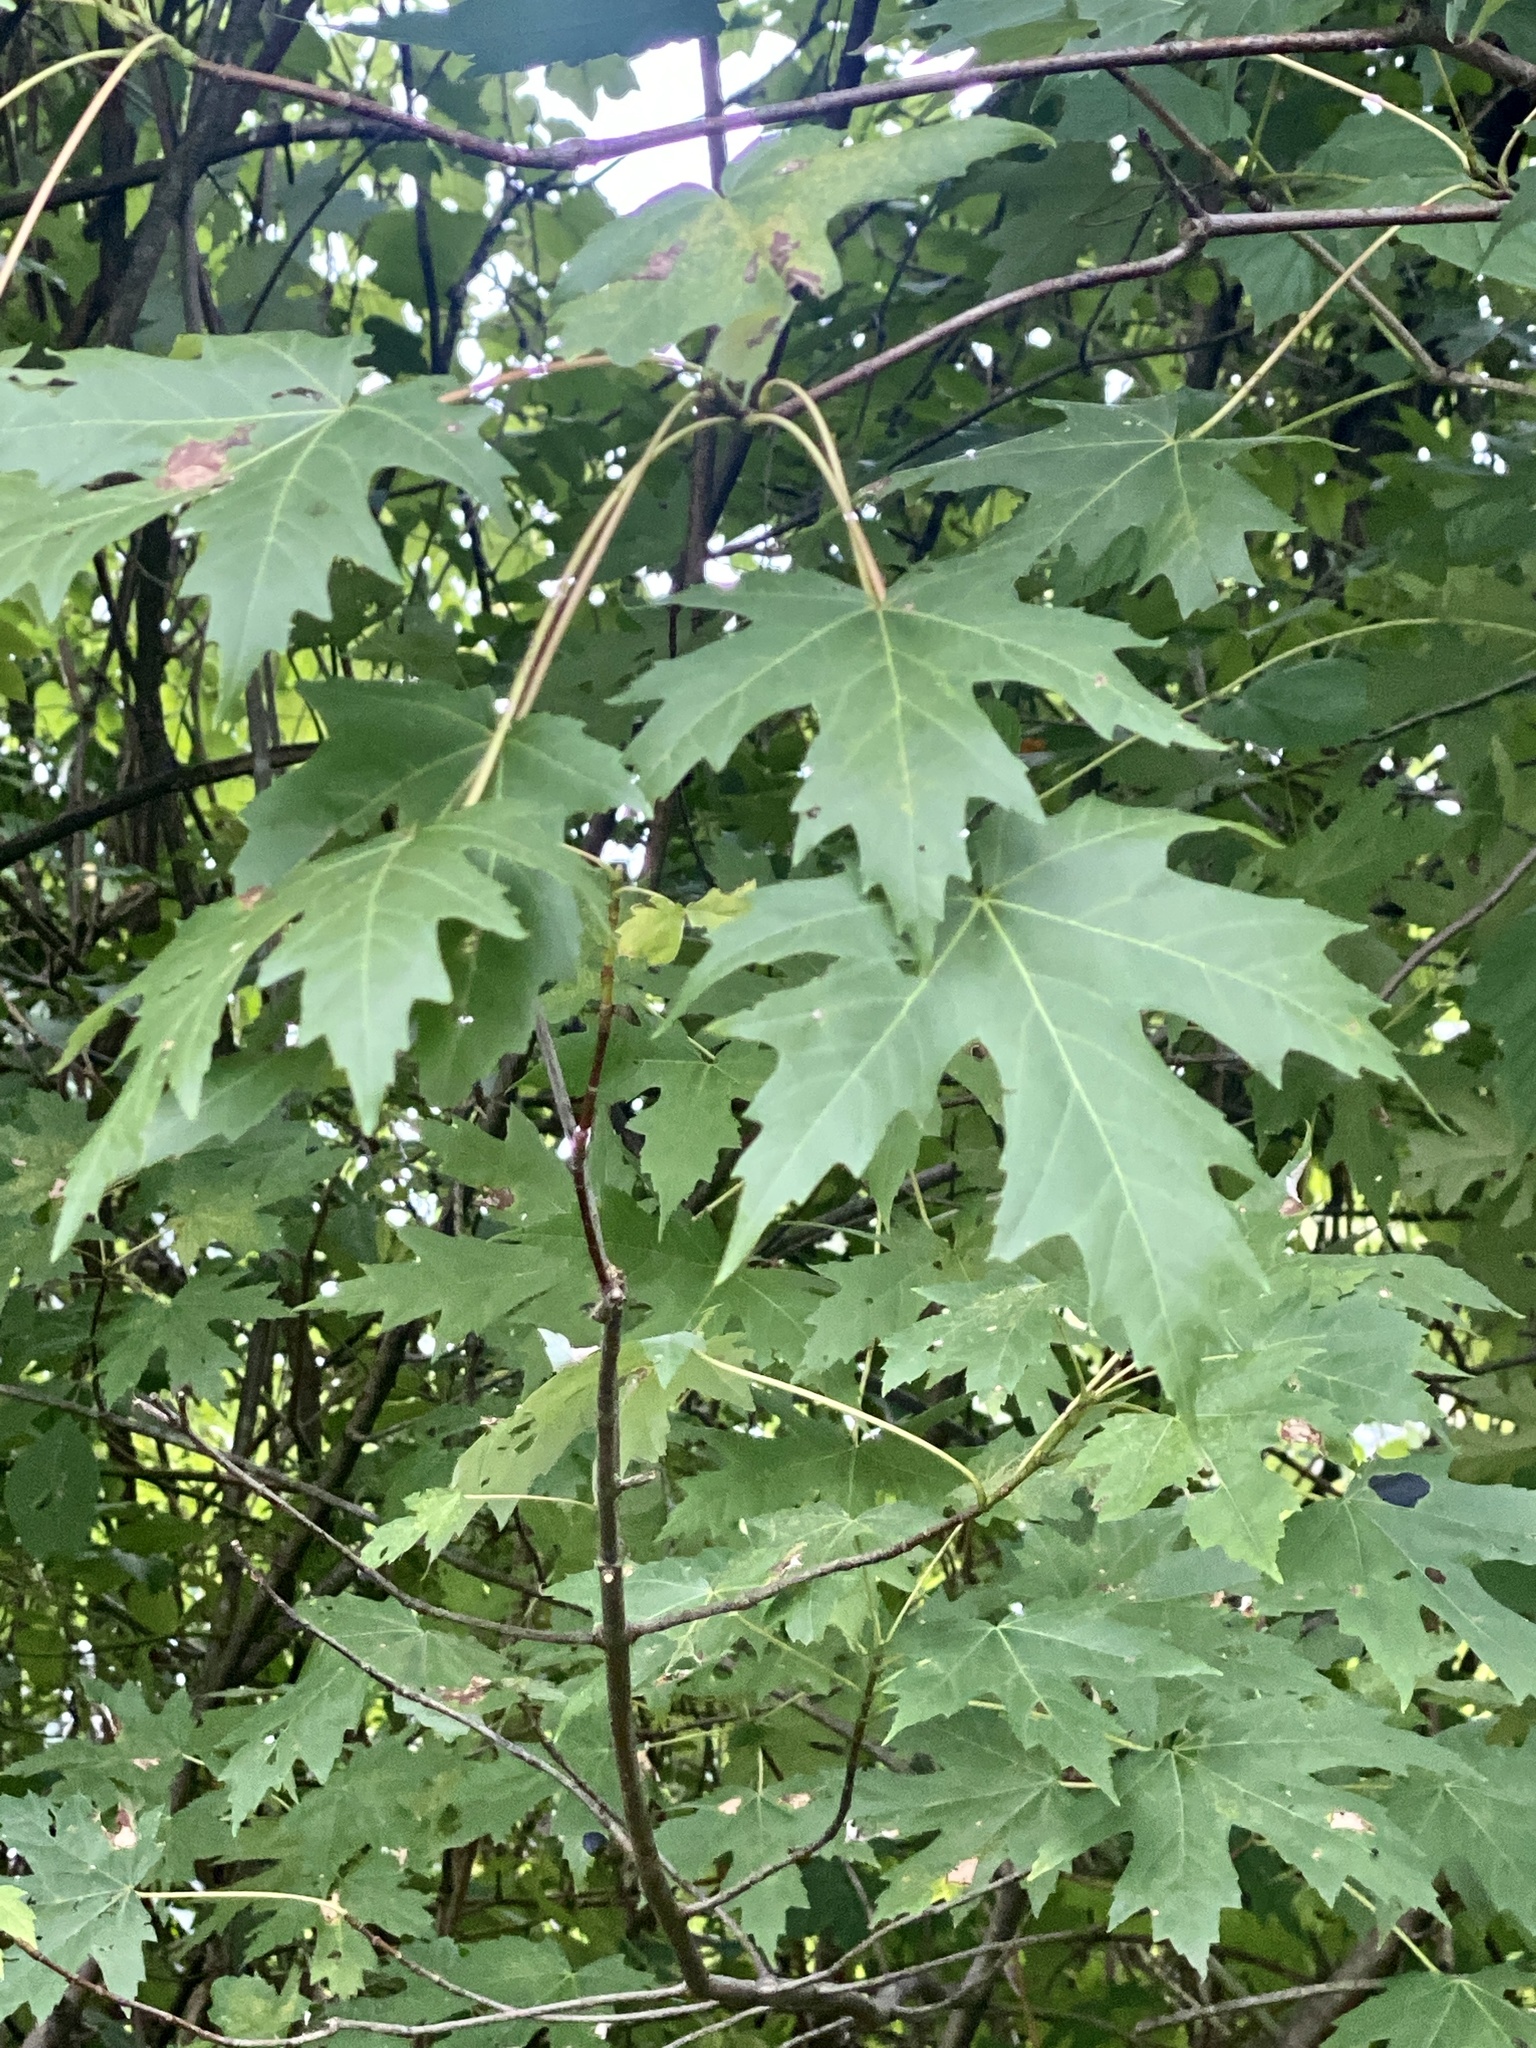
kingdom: Plantae
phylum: Tracheophyta
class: Magnoliopsida
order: Sapindales
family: Sapindaceae
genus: Acer
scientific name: Acer saccharinum
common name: Silver maple
